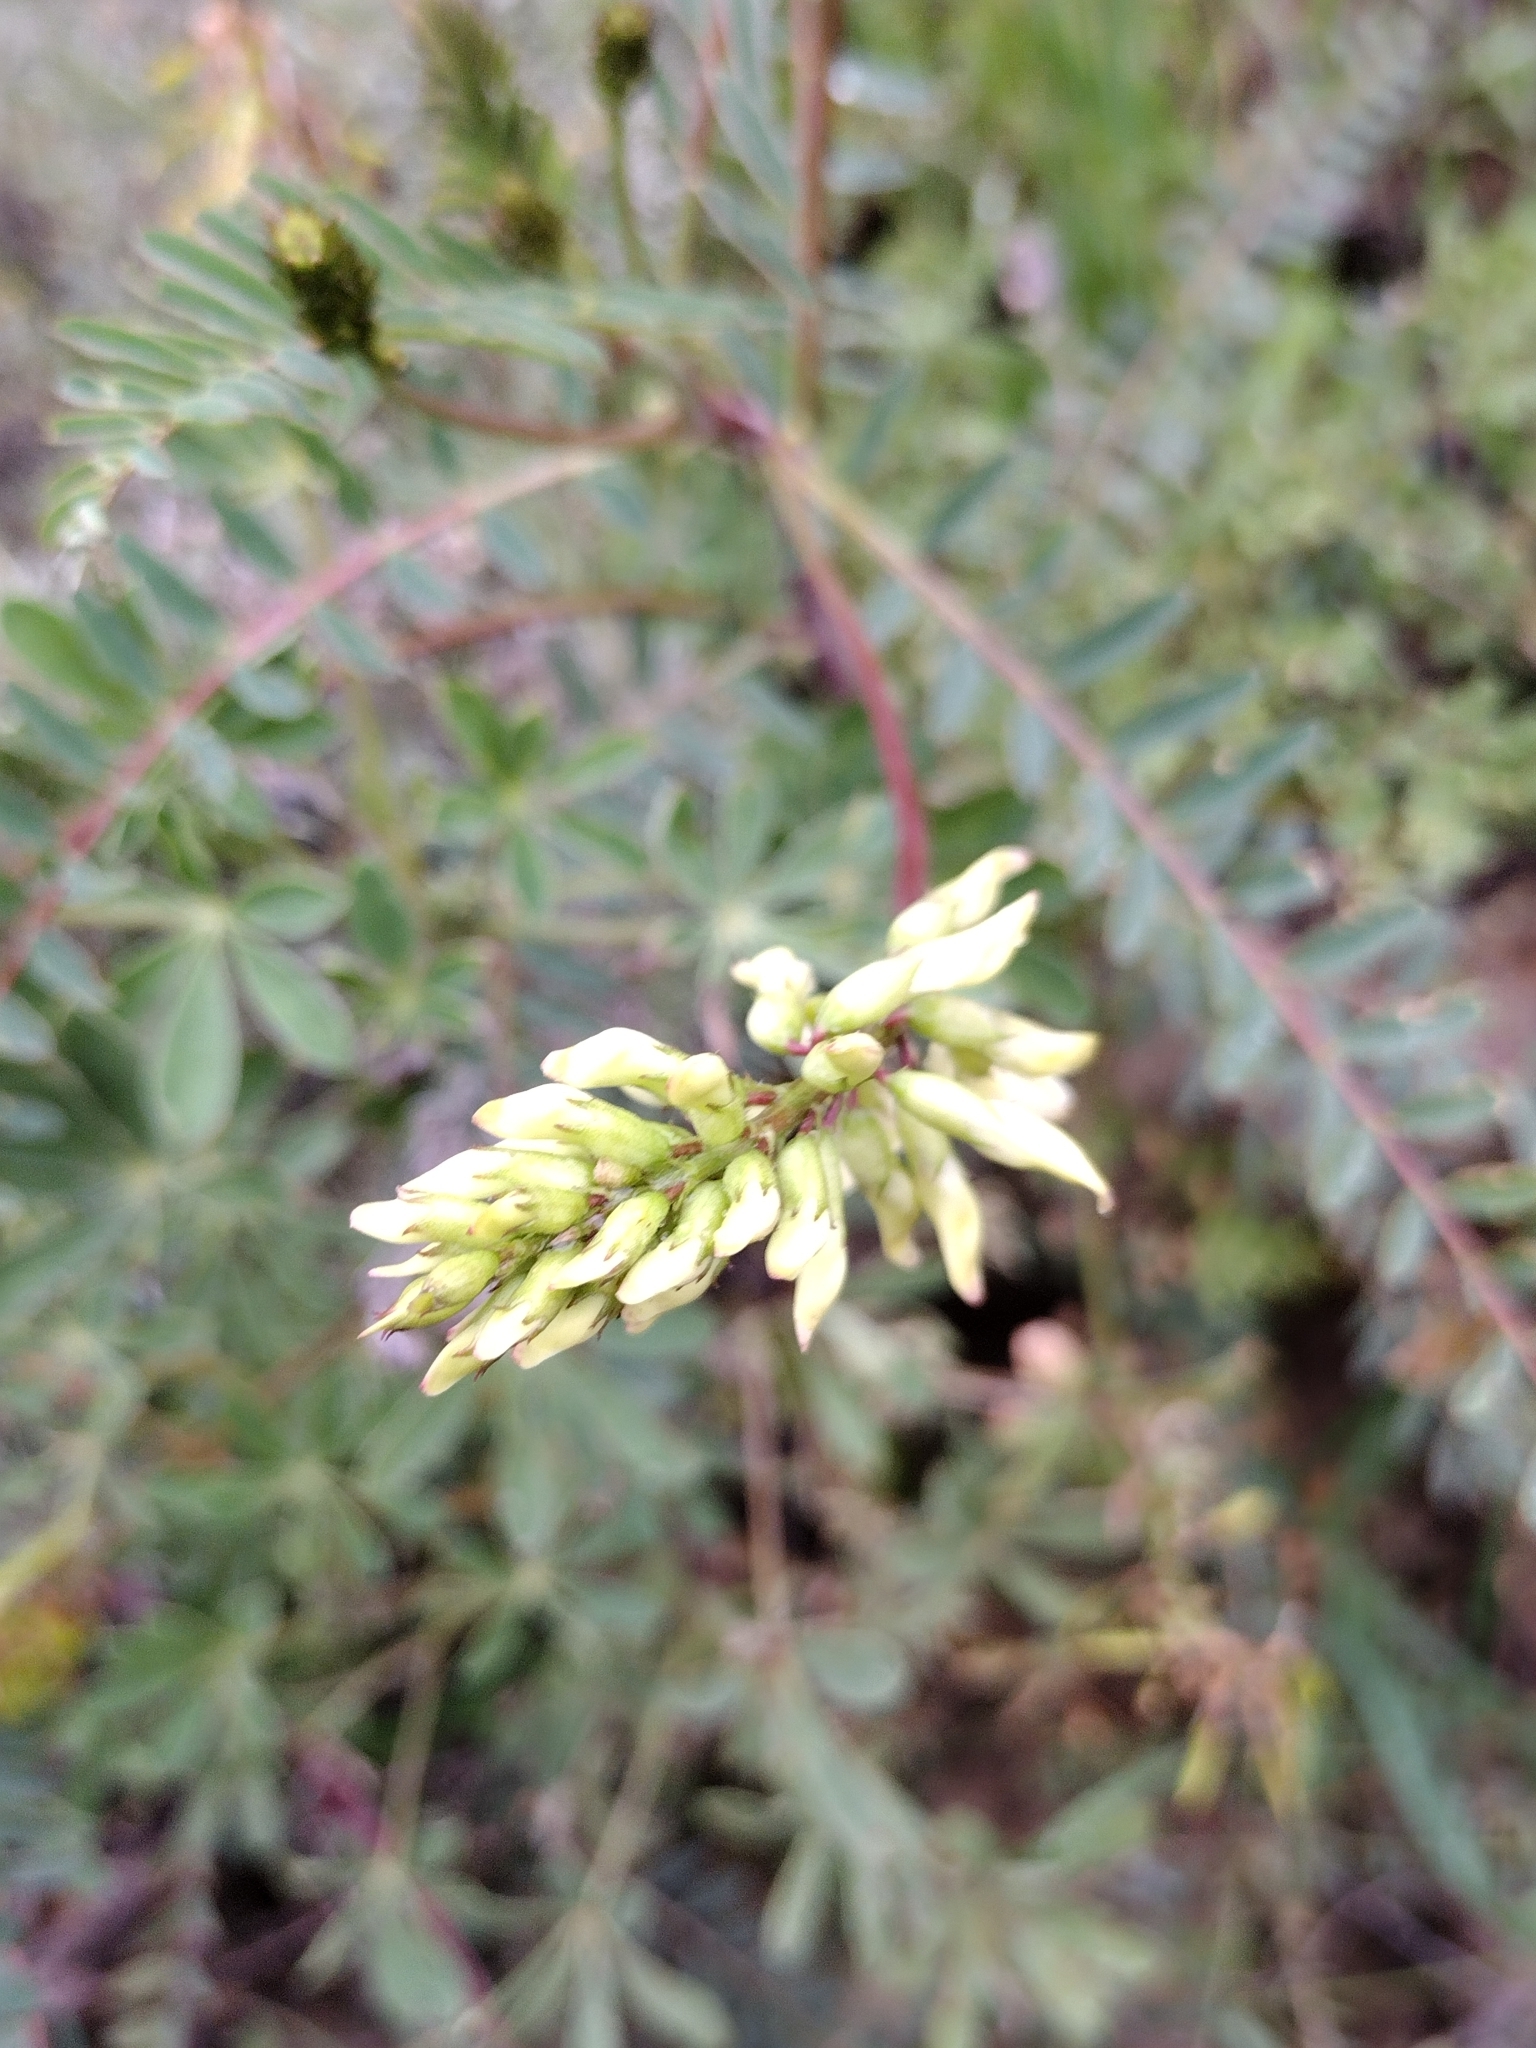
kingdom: Plantae
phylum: Tracheophyta
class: Magnoliopsida
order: Fabales
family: Fabaceae
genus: Astragalus
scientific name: Astragalus trichopodus
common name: Santa barbara milk-vetch
